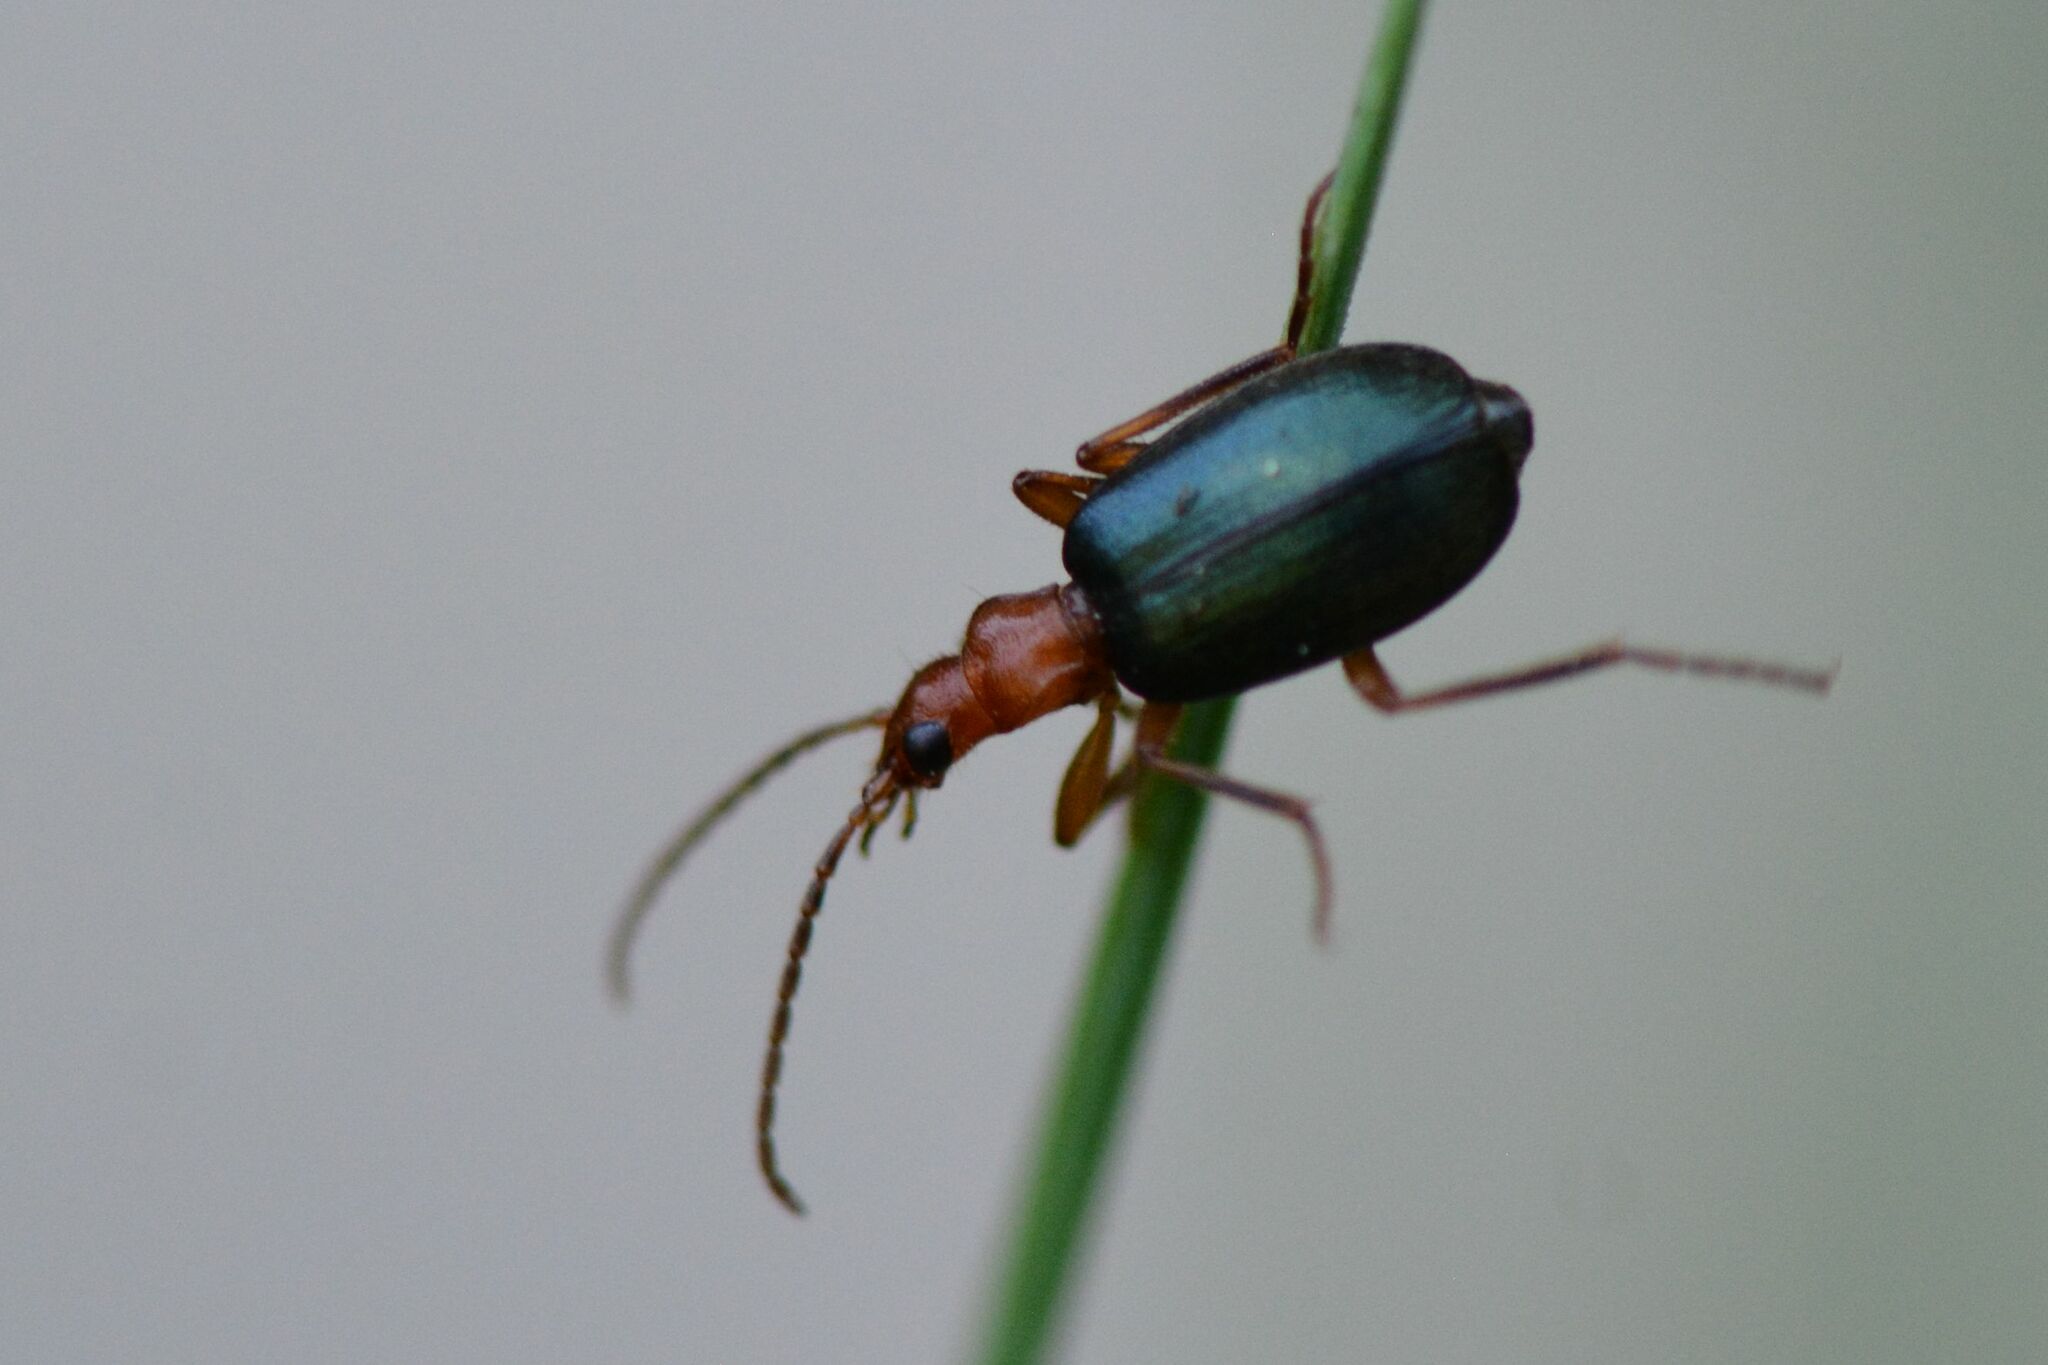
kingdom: Animalia
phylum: Arthropoda
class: Insecta
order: Coleoptera
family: Carabidae
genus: Brachinus
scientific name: Brachinus crepitans
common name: Bombadier beetle
